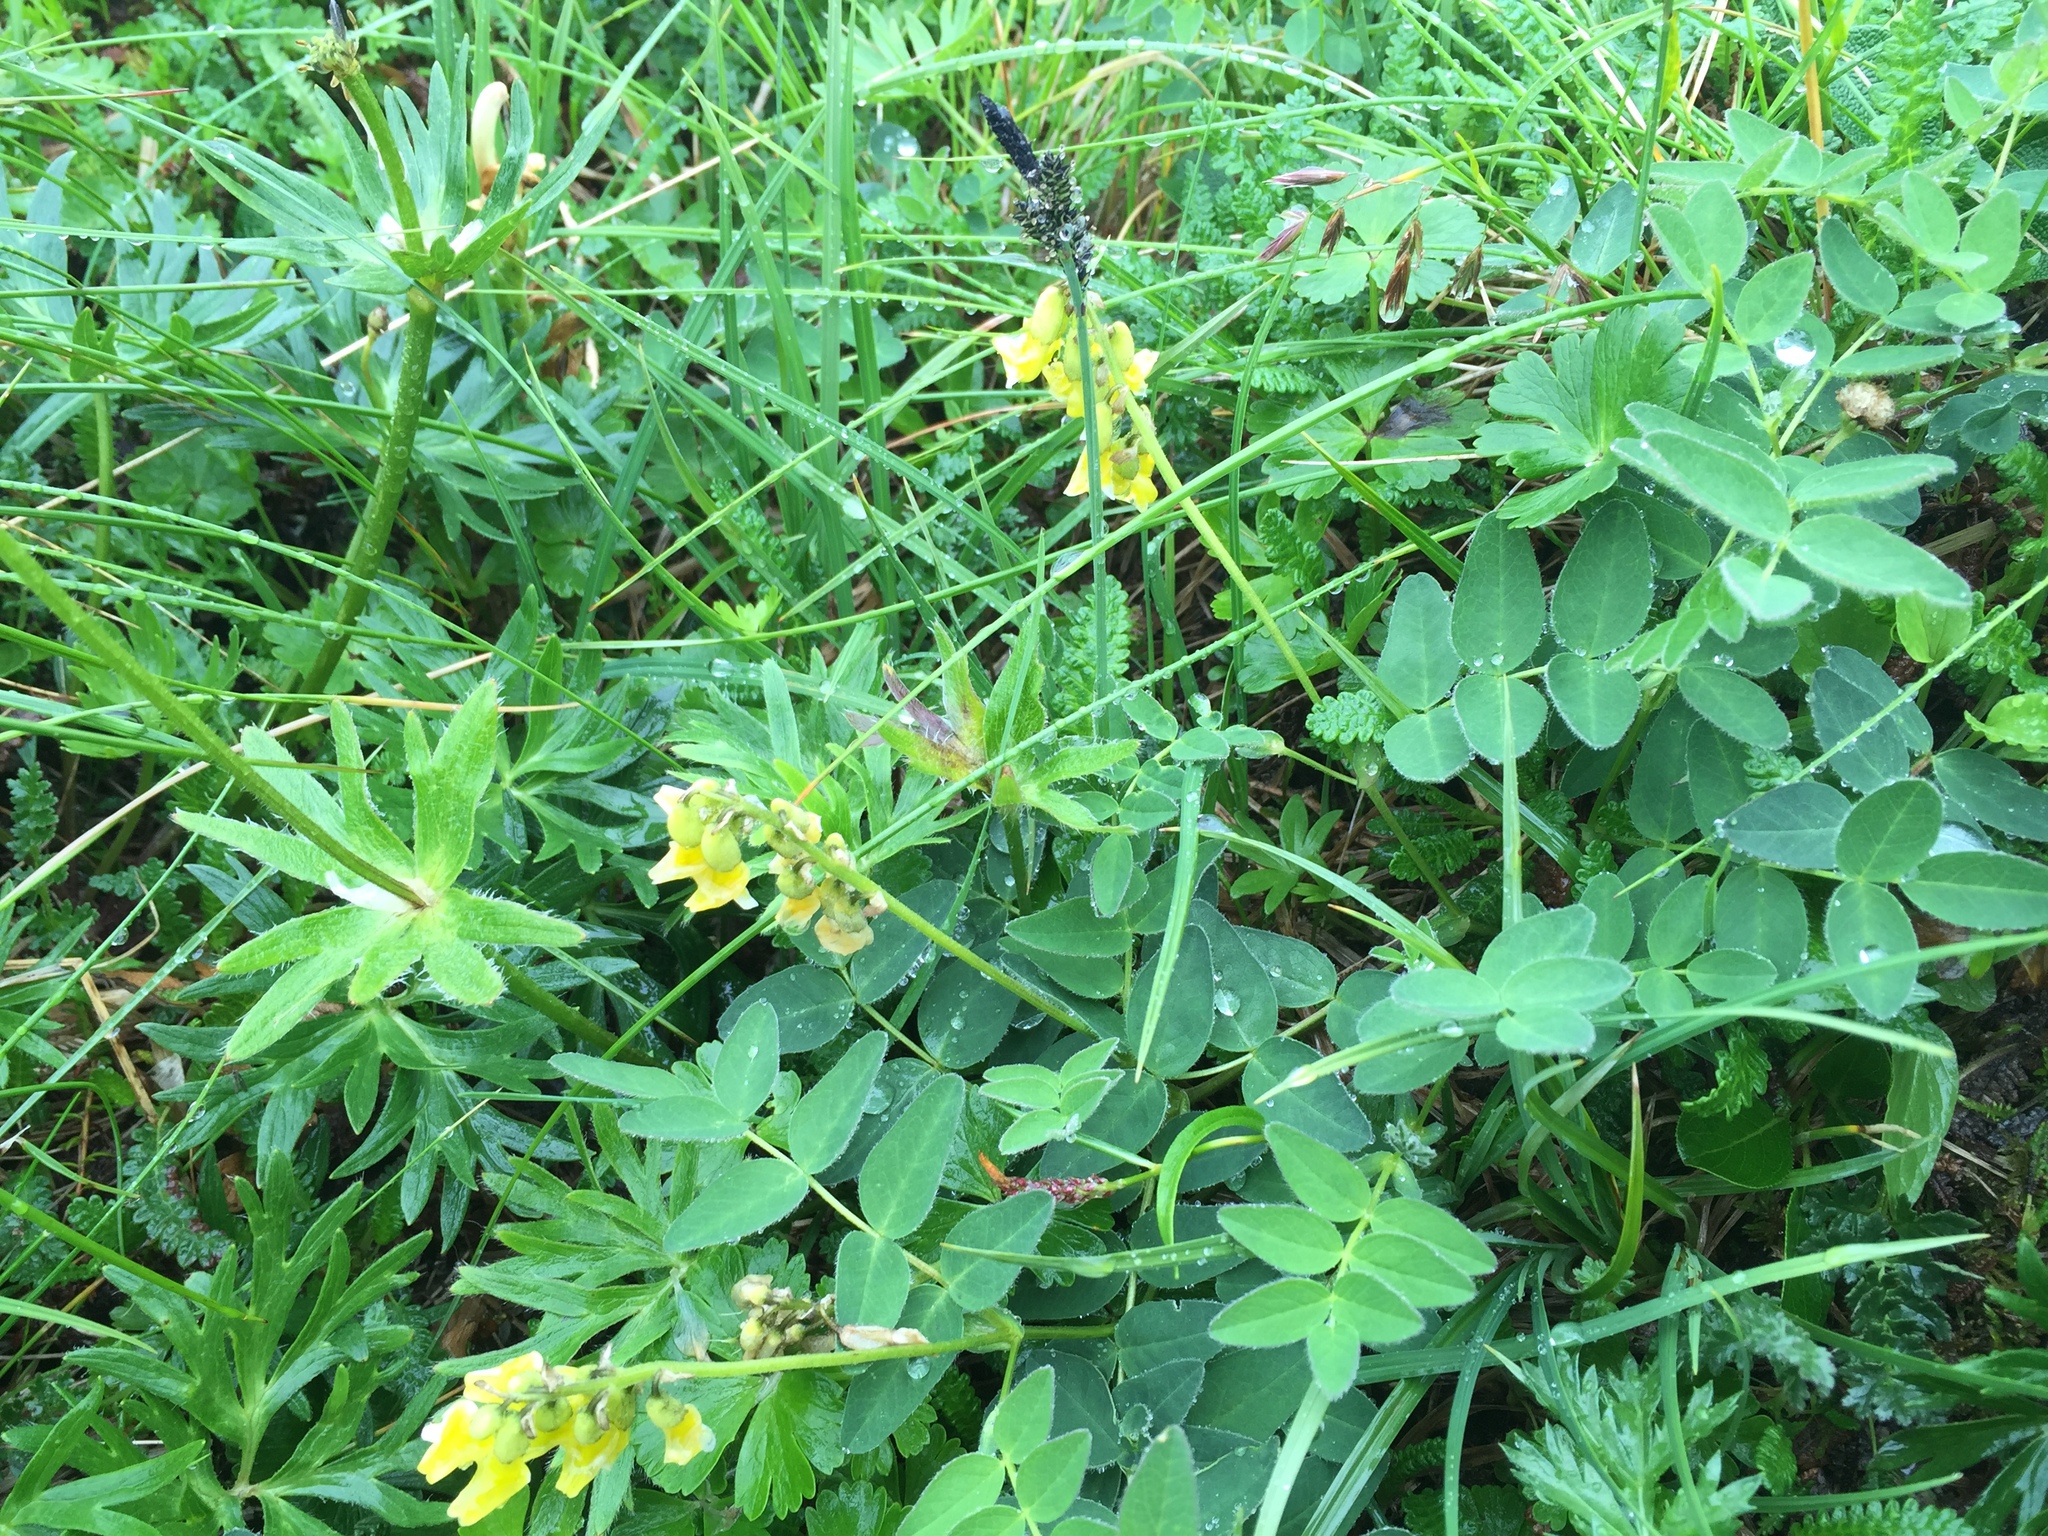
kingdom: Plantae
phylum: Tracheophyta
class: Magnoliopsida
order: Fabales
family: Fabaceae
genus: Astragalus
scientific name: Astragalus umbellatus
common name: Tundra milk-vetch
